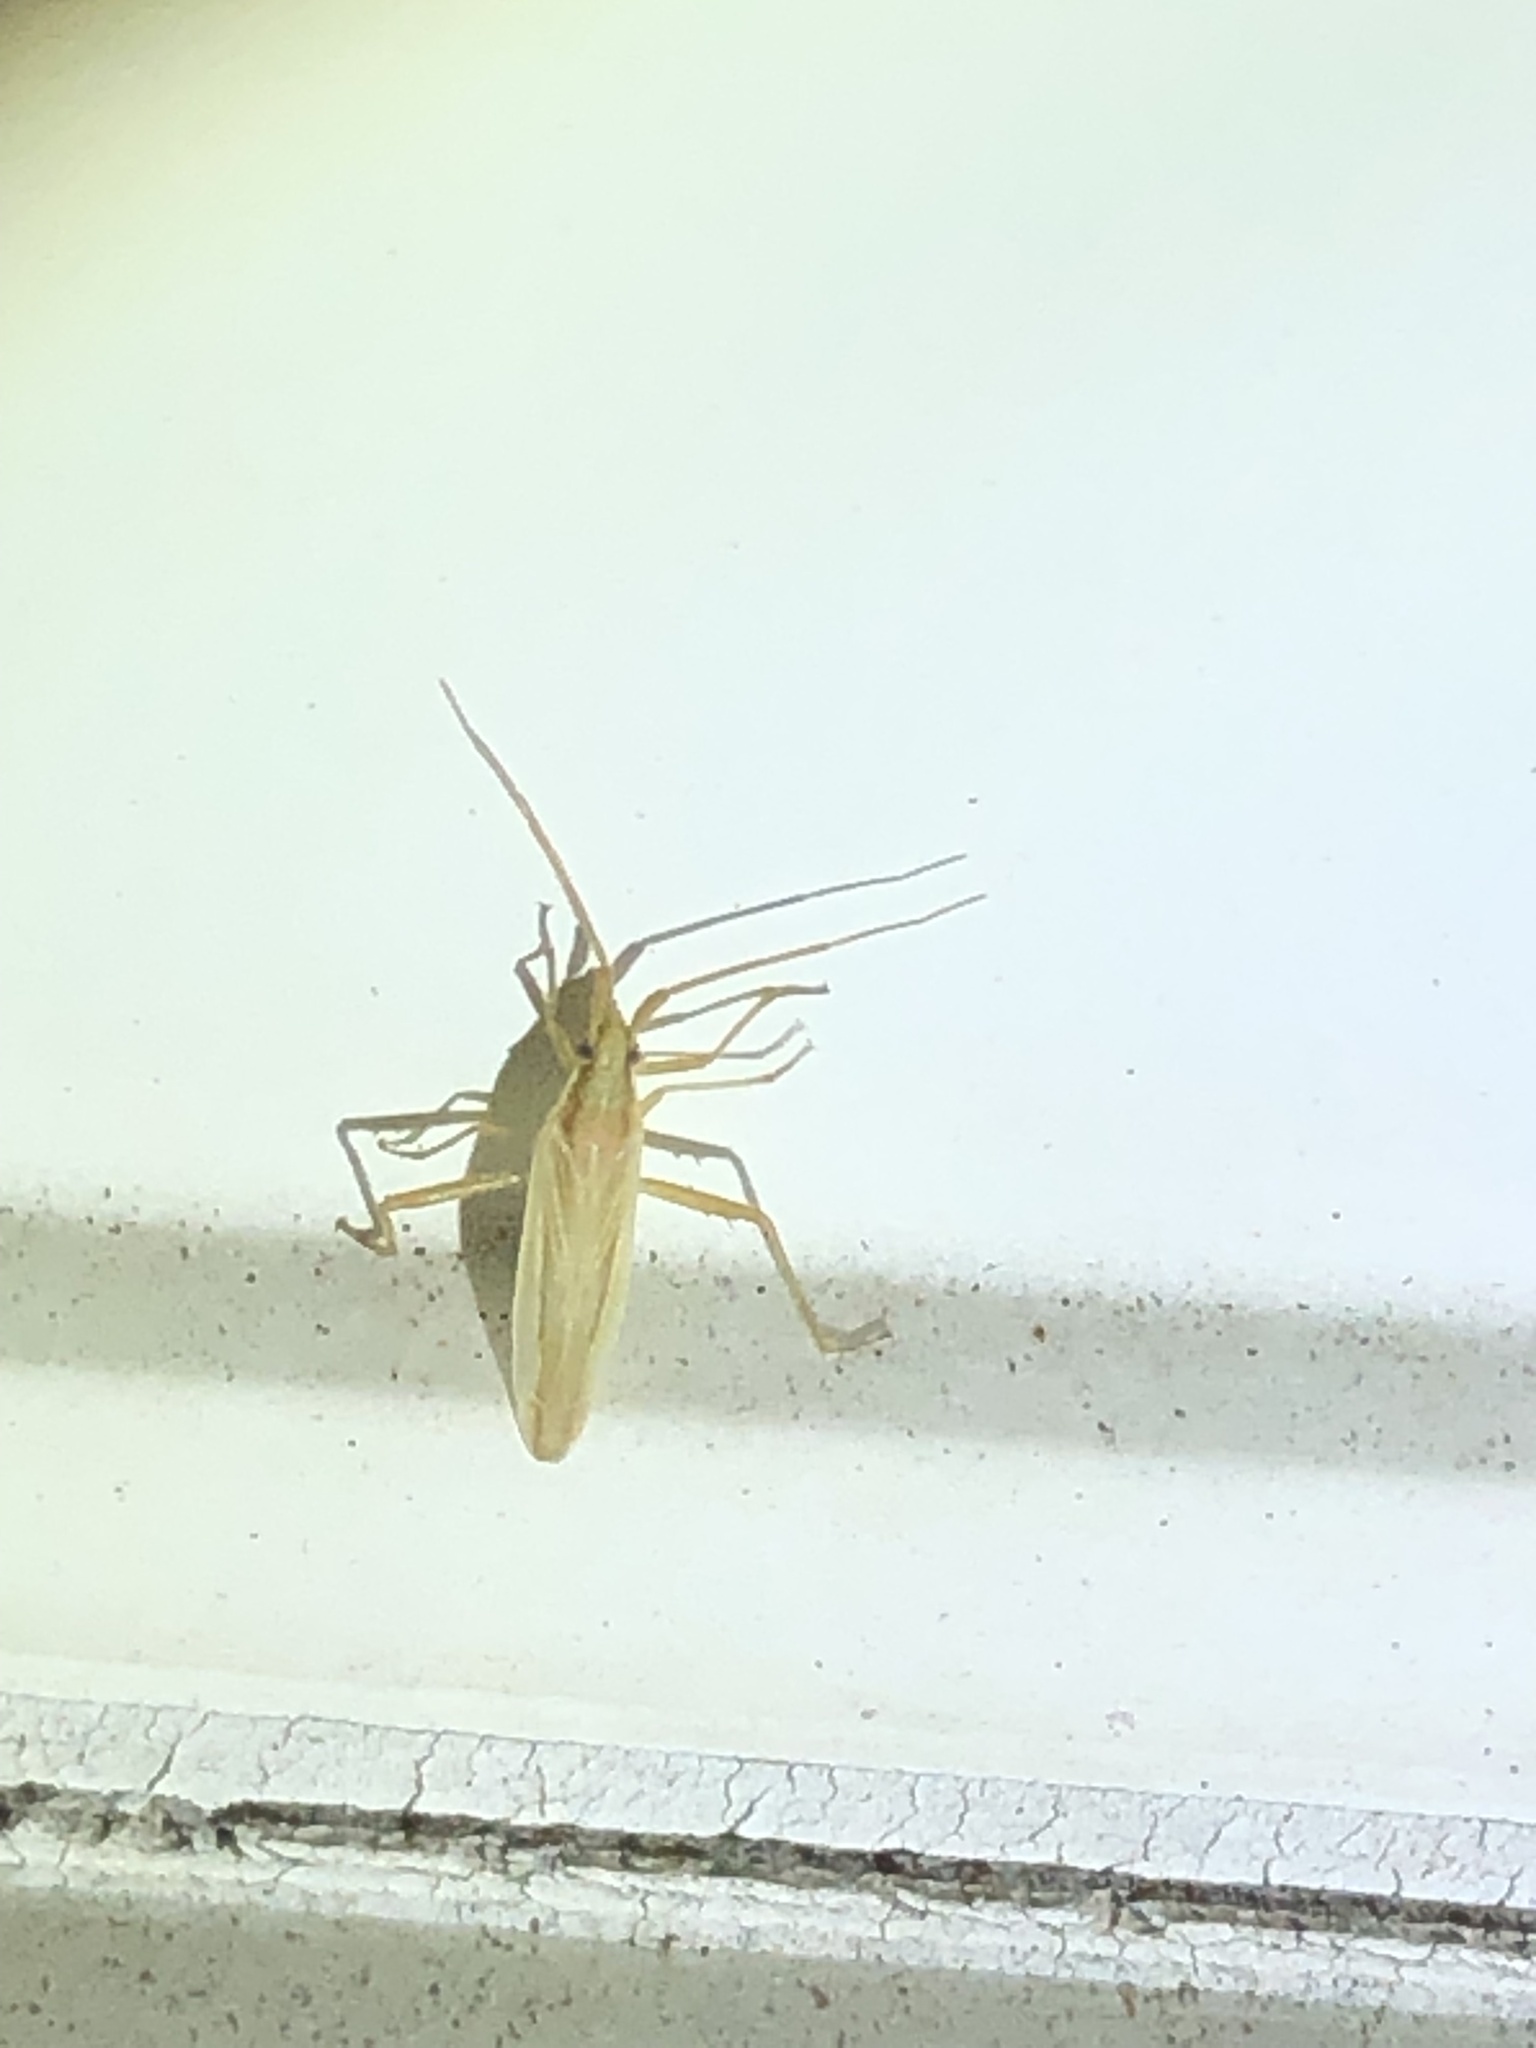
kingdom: Animalia
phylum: Arthropoda
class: Insecta
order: Hemiptera
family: Miridae
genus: Stenodema
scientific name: Stenodema trispinosa
